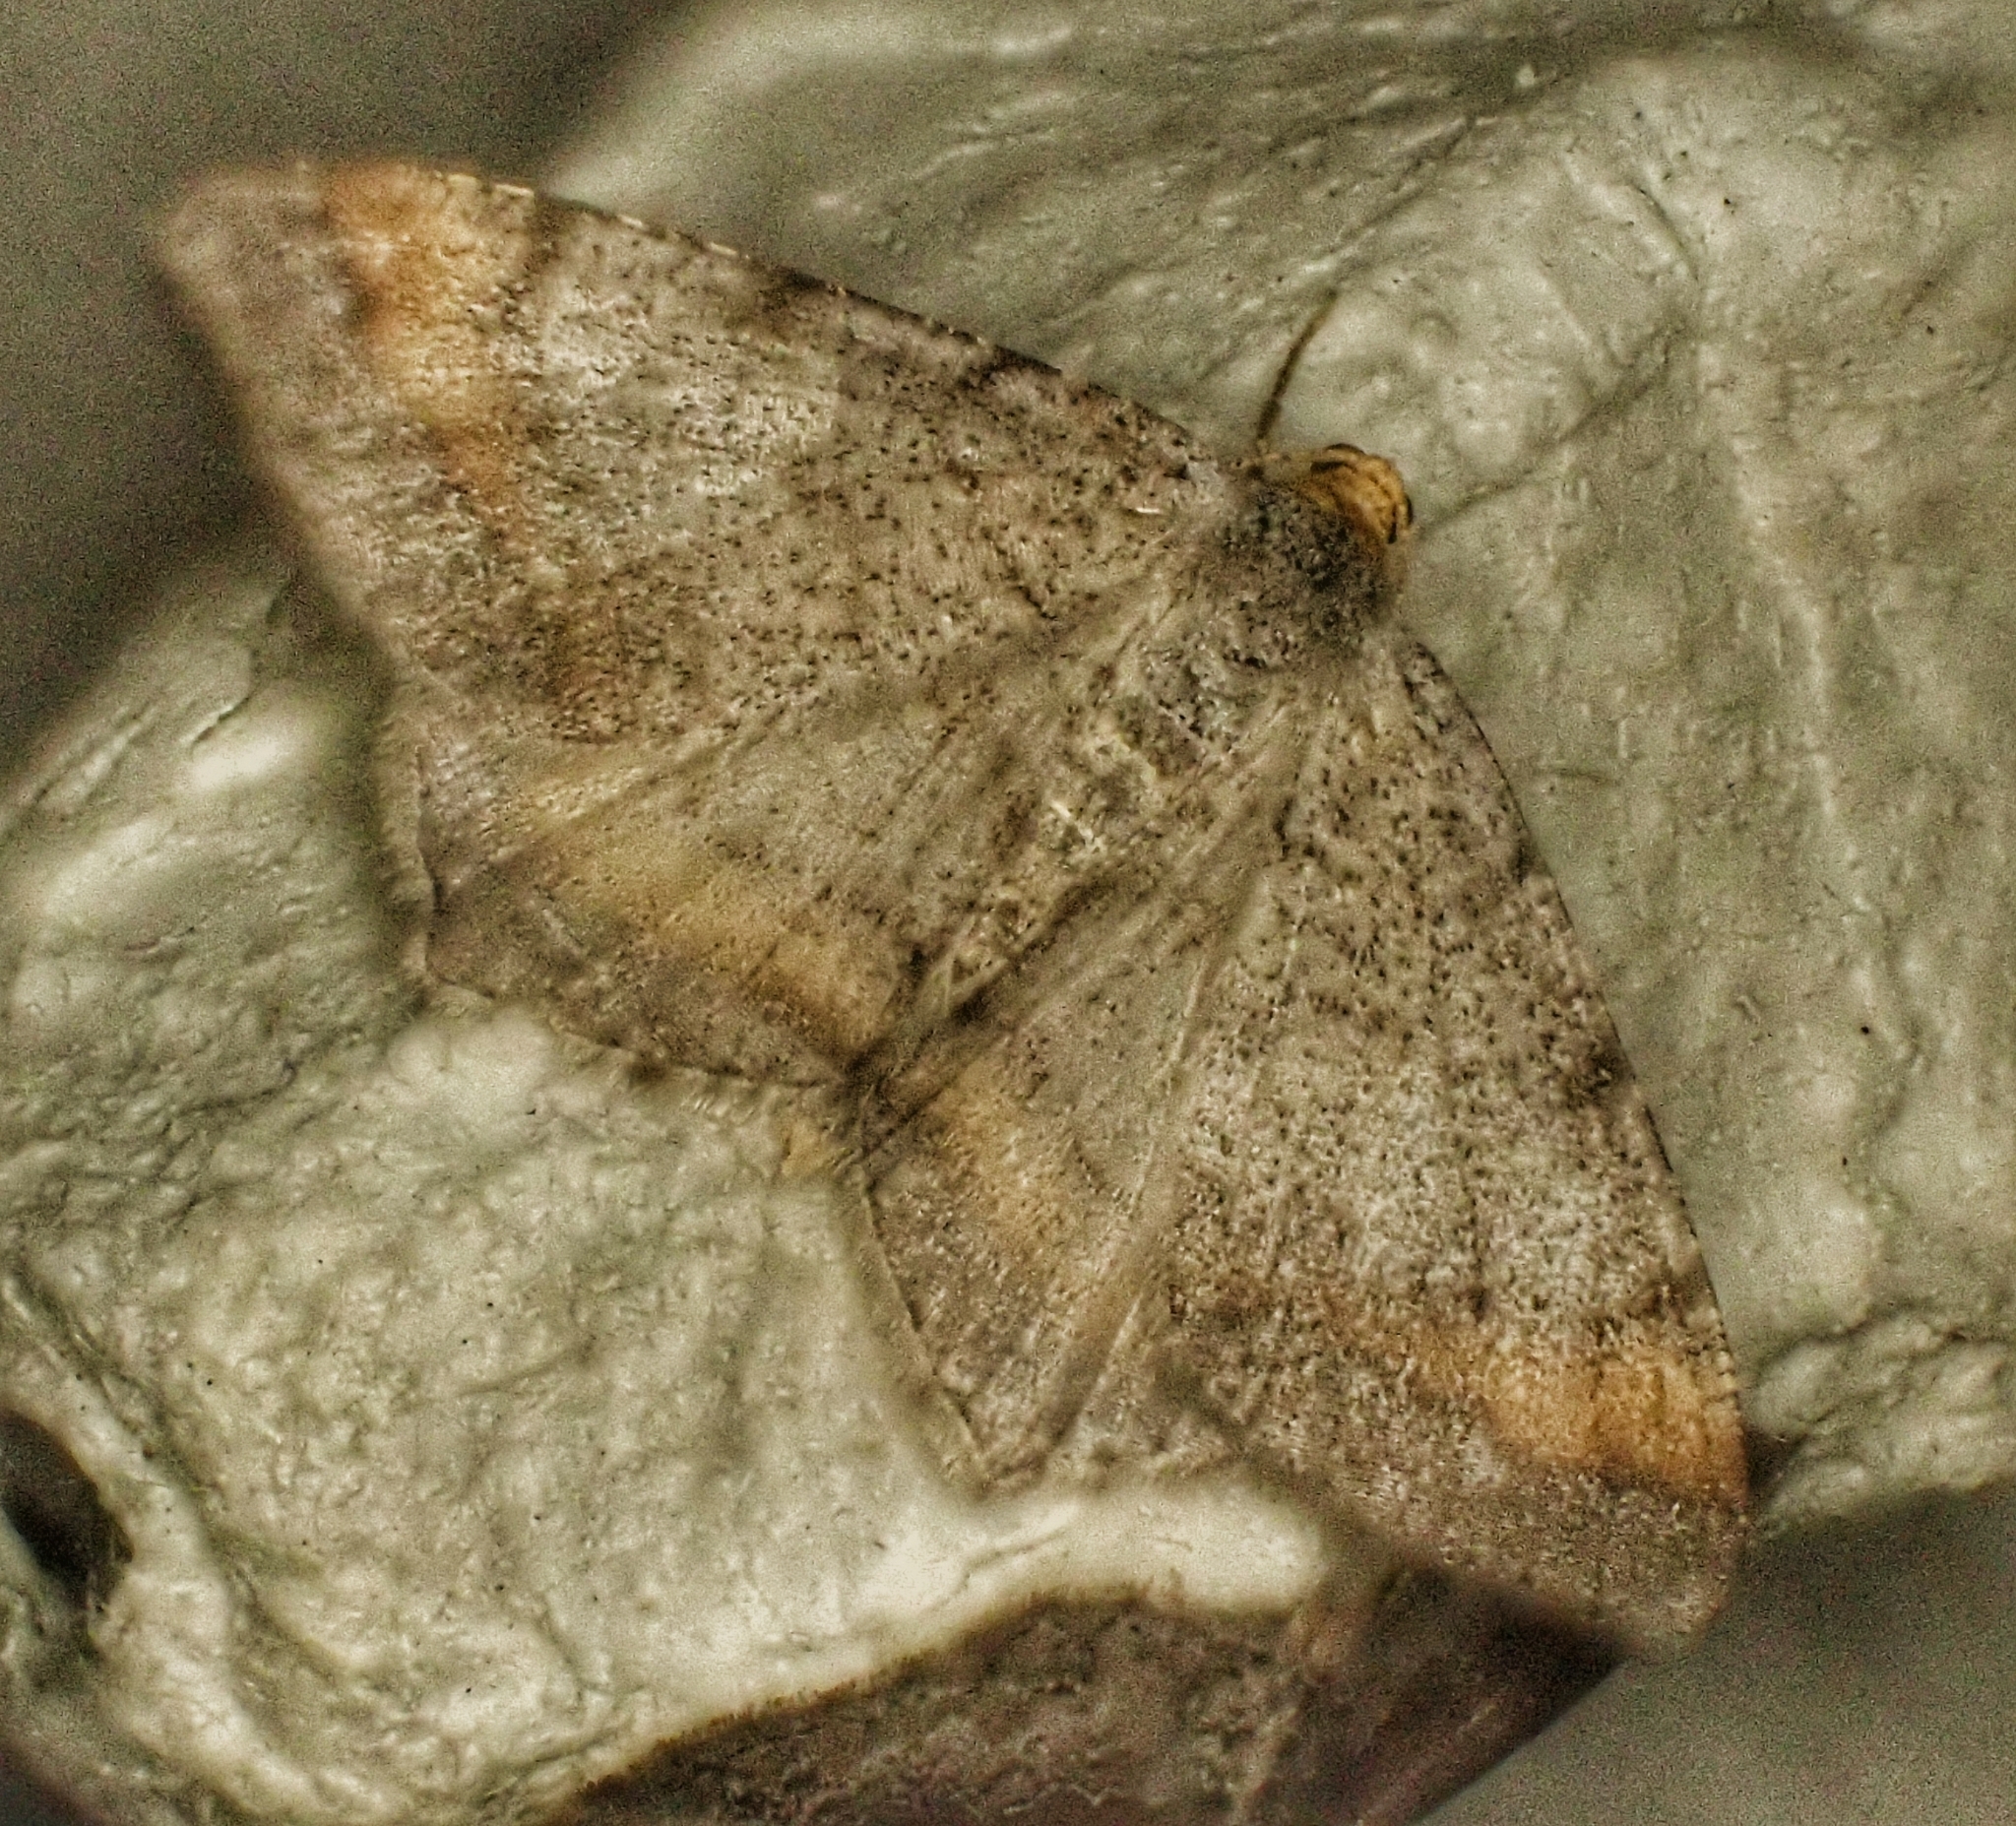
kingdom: Animalia
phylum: Arthropoda
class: Insecta
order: Lepidoptera
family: Geometridae
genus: Macaria
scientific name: Macaria liturata
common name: Tawny-barred angle
